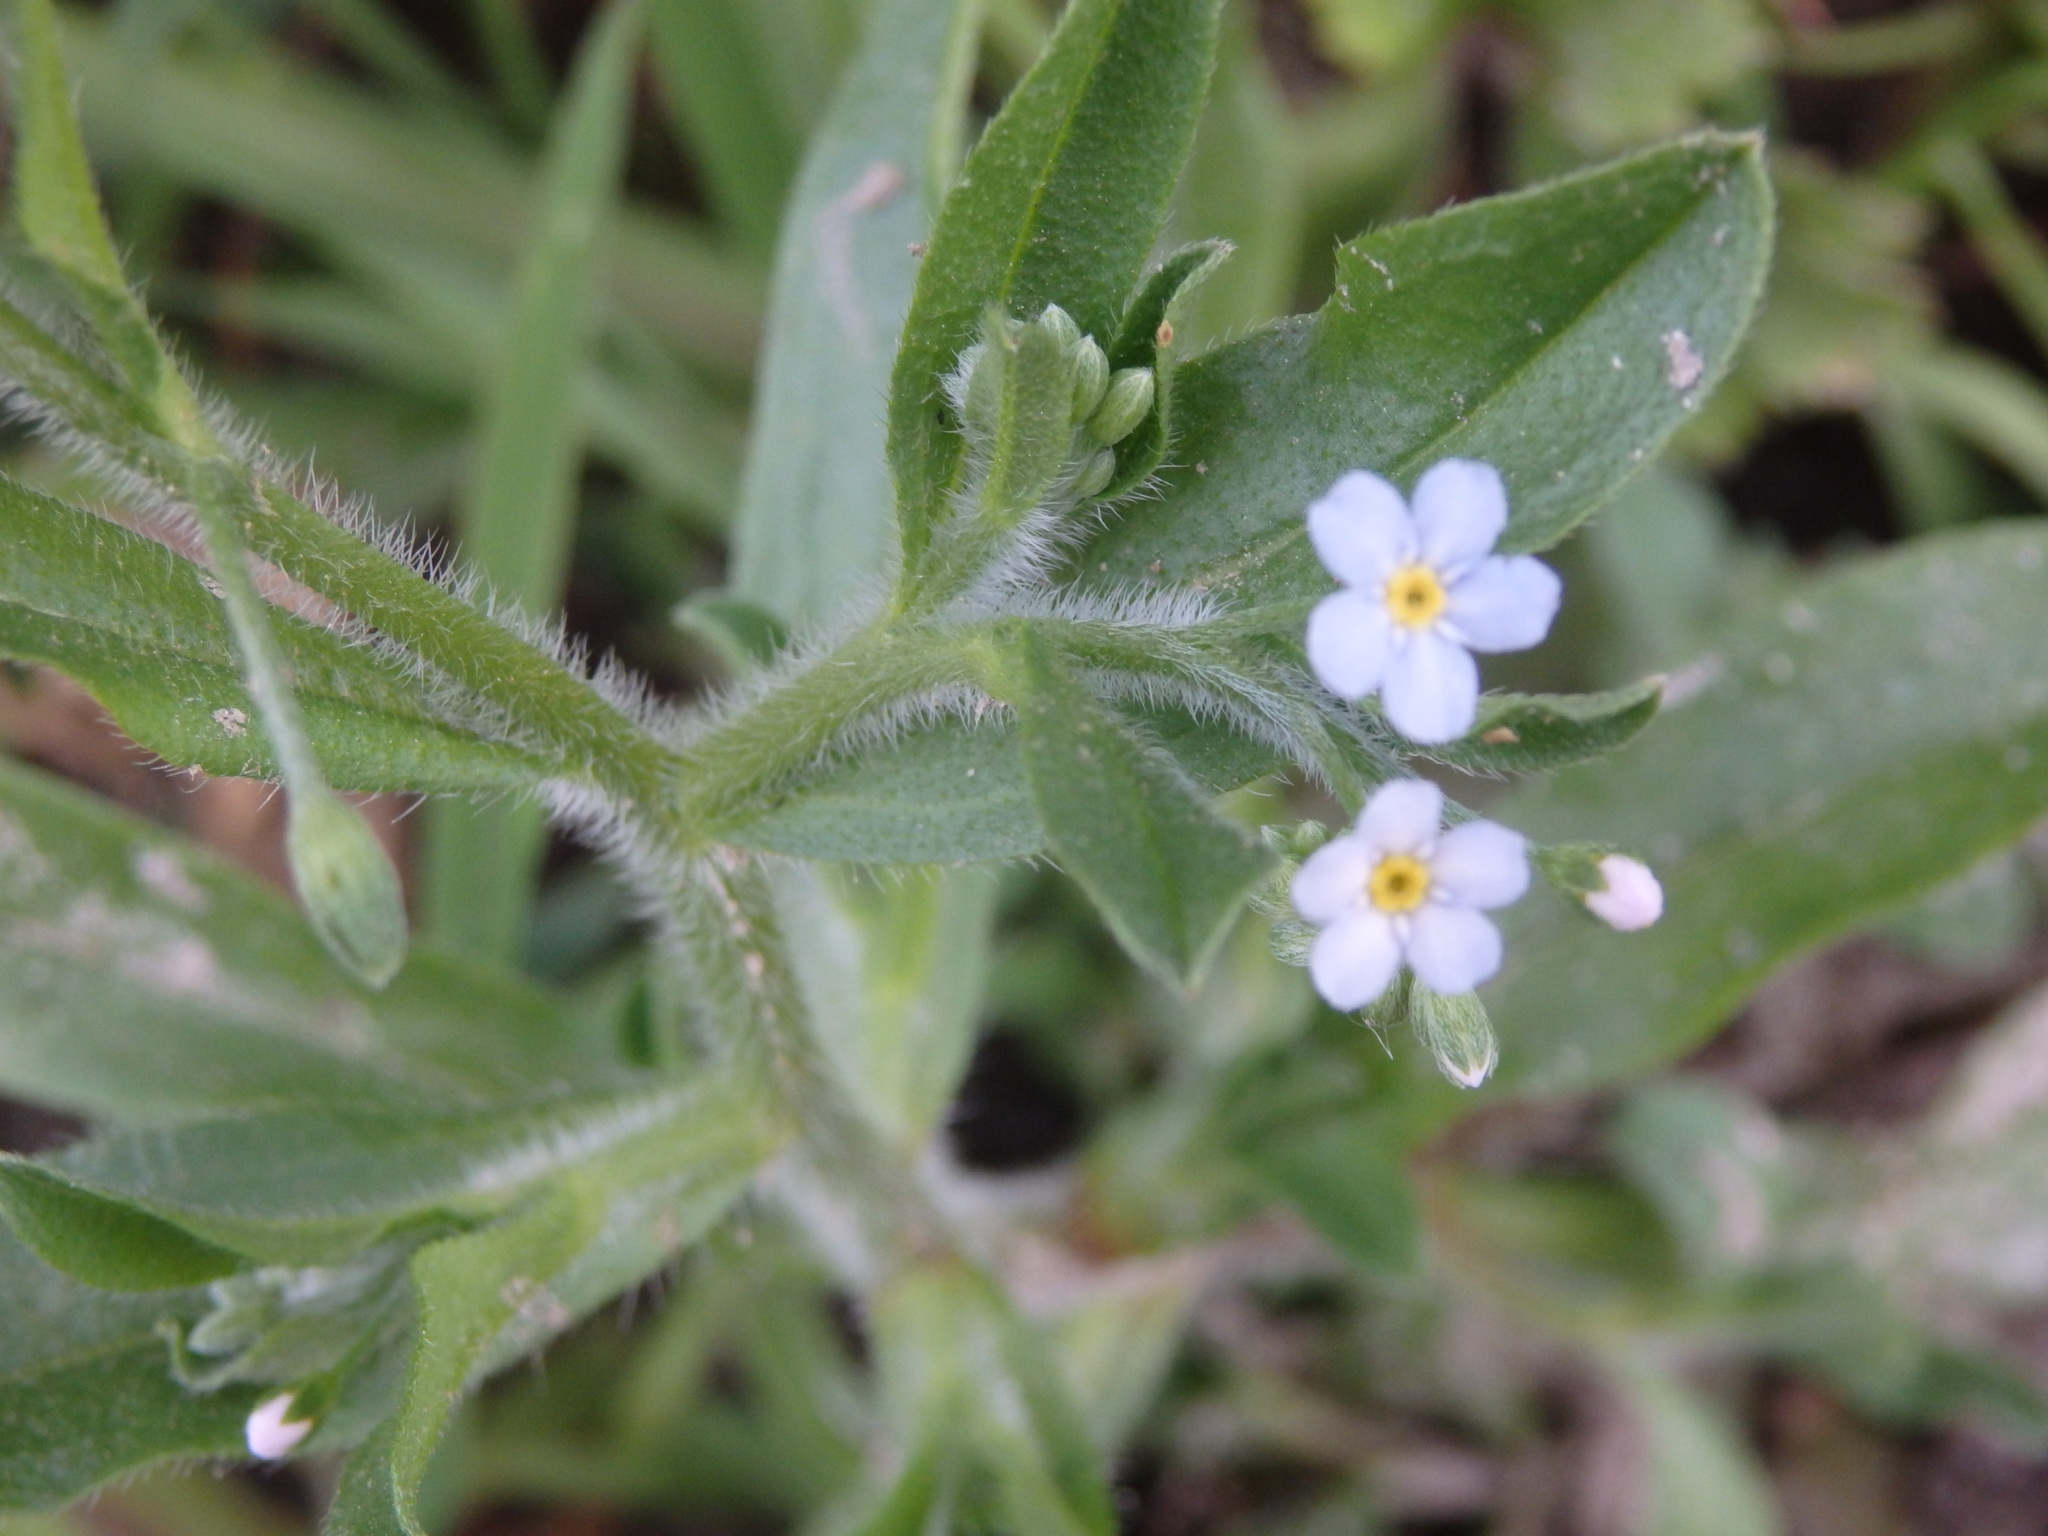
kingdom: Plantae
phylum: Tracheophyta
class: Magnoliopsida
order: Boraginales
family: Boraginaceae
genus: Myosotis
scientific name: Myosotis welwitschii
